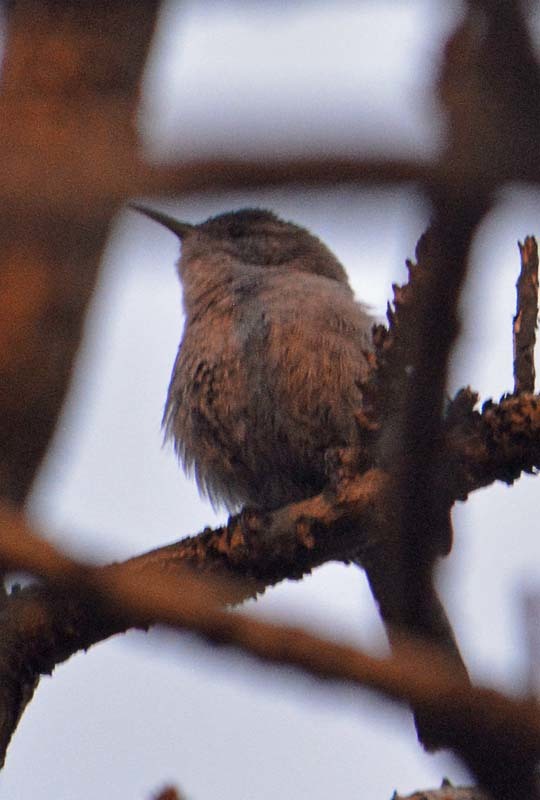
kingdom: Animalia
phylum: Chordata
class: Aves
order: Passeriformes
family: Troglodytidae
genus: Thryomanes
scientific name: Thryomanes bewickii
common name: Bewick's wren
